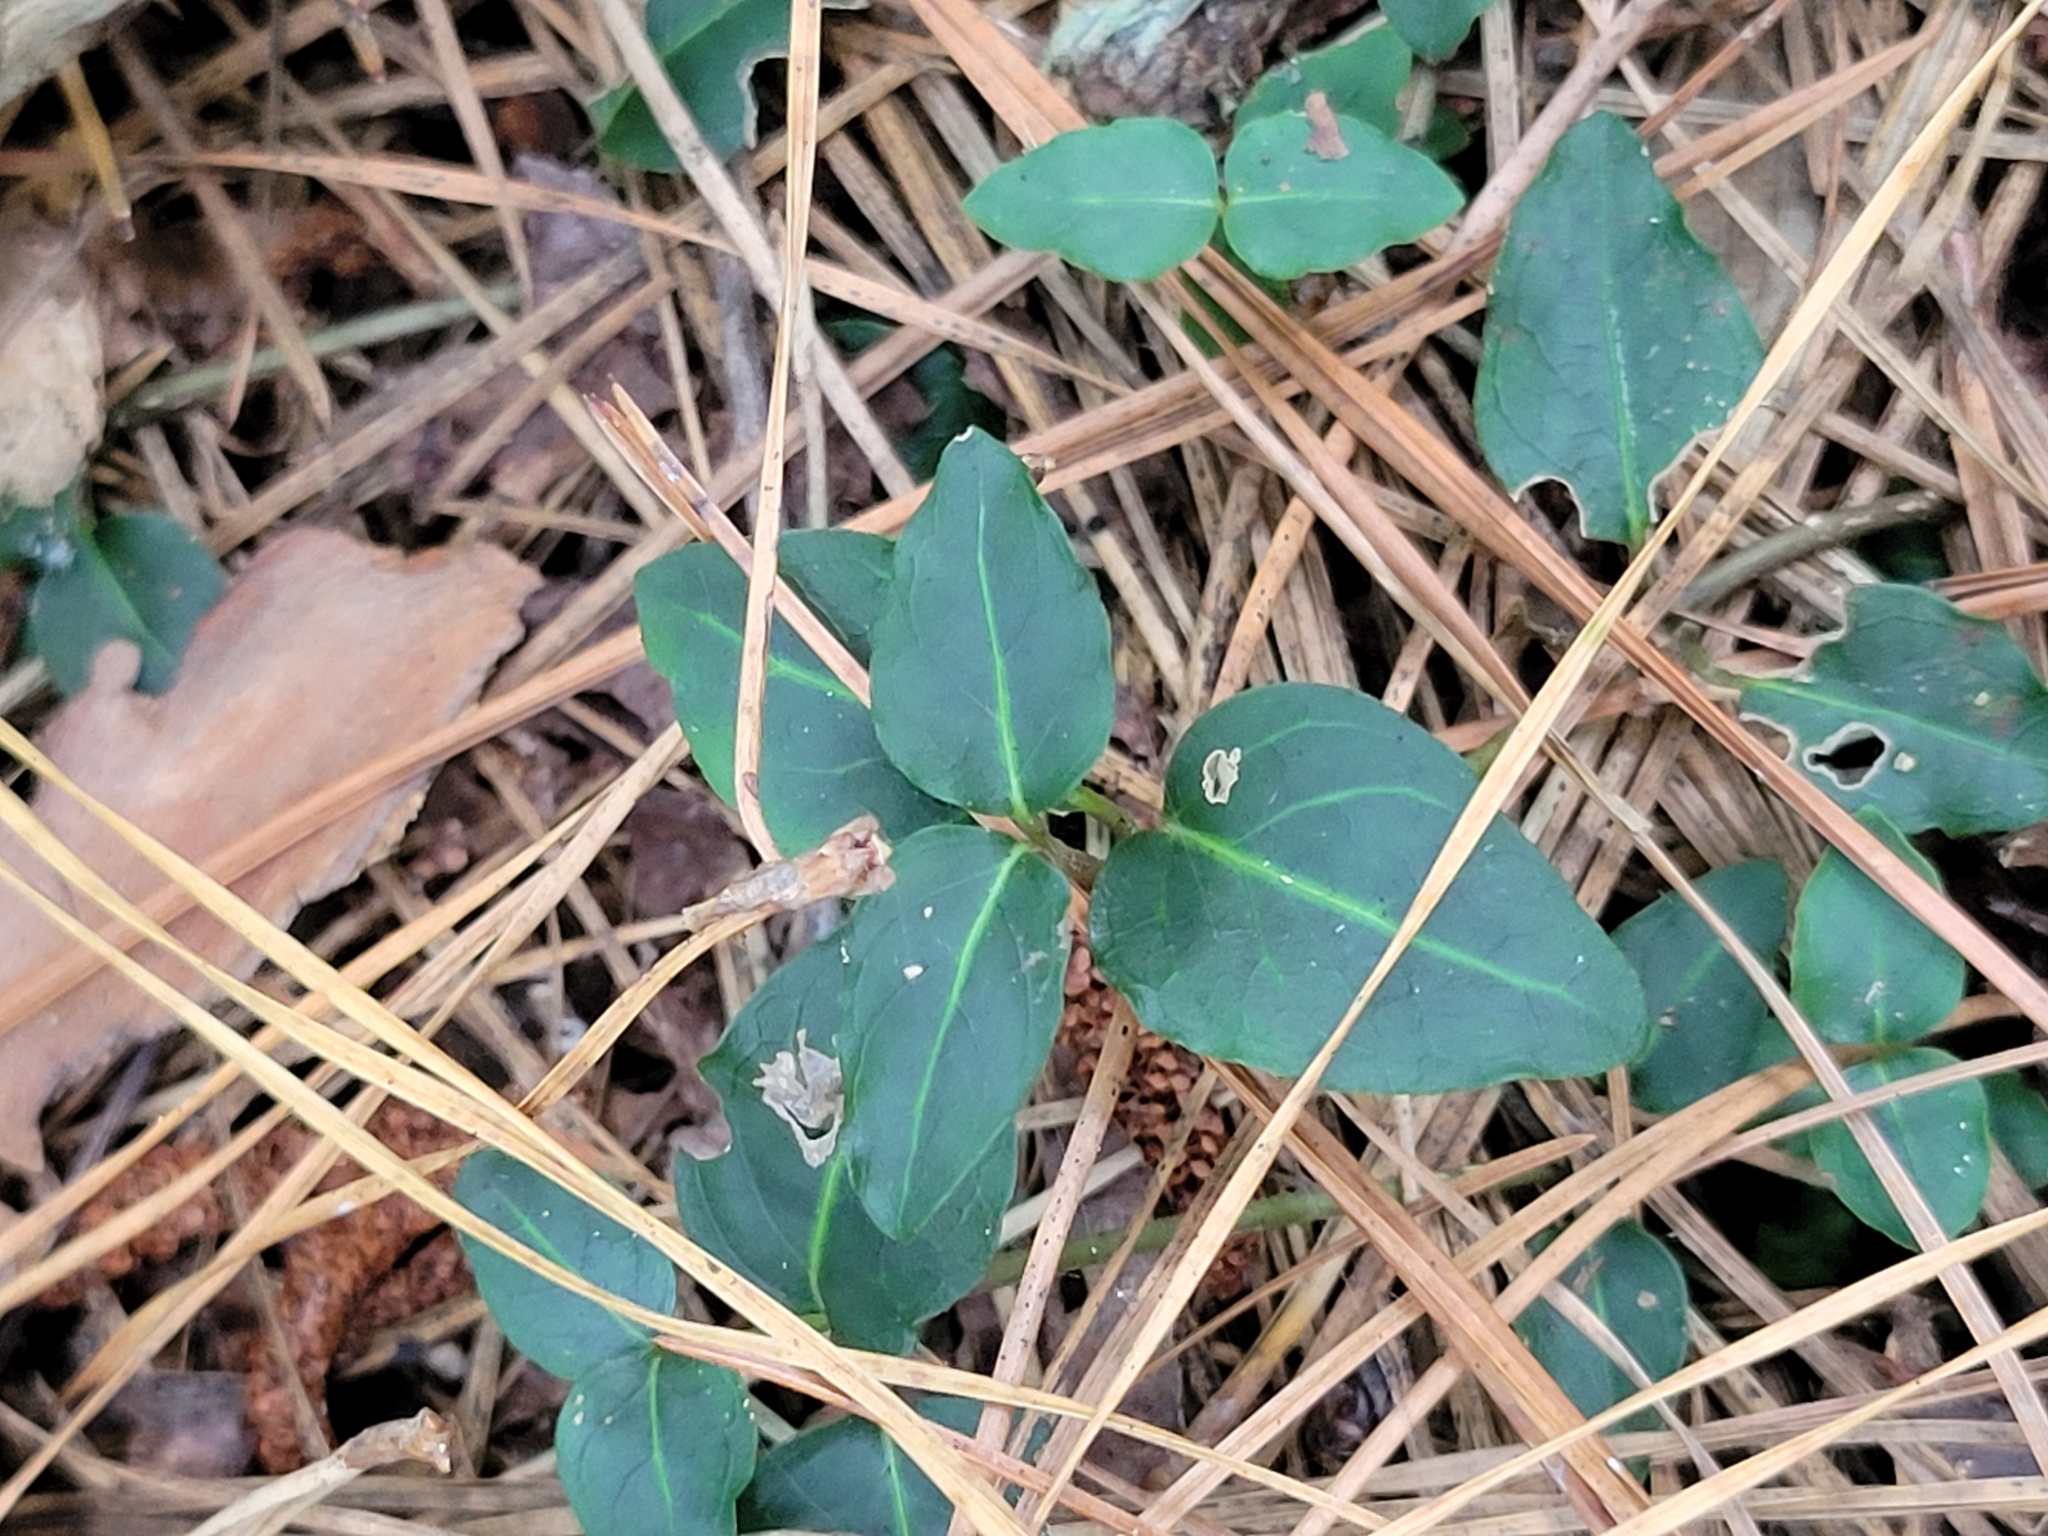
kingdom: Plantae
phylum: Tracheophyta
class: Magnoliopsida
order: Gentianales
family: Rubiaceae
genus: Mitchella
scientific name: Mitchella repens
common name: Partridge-berry
